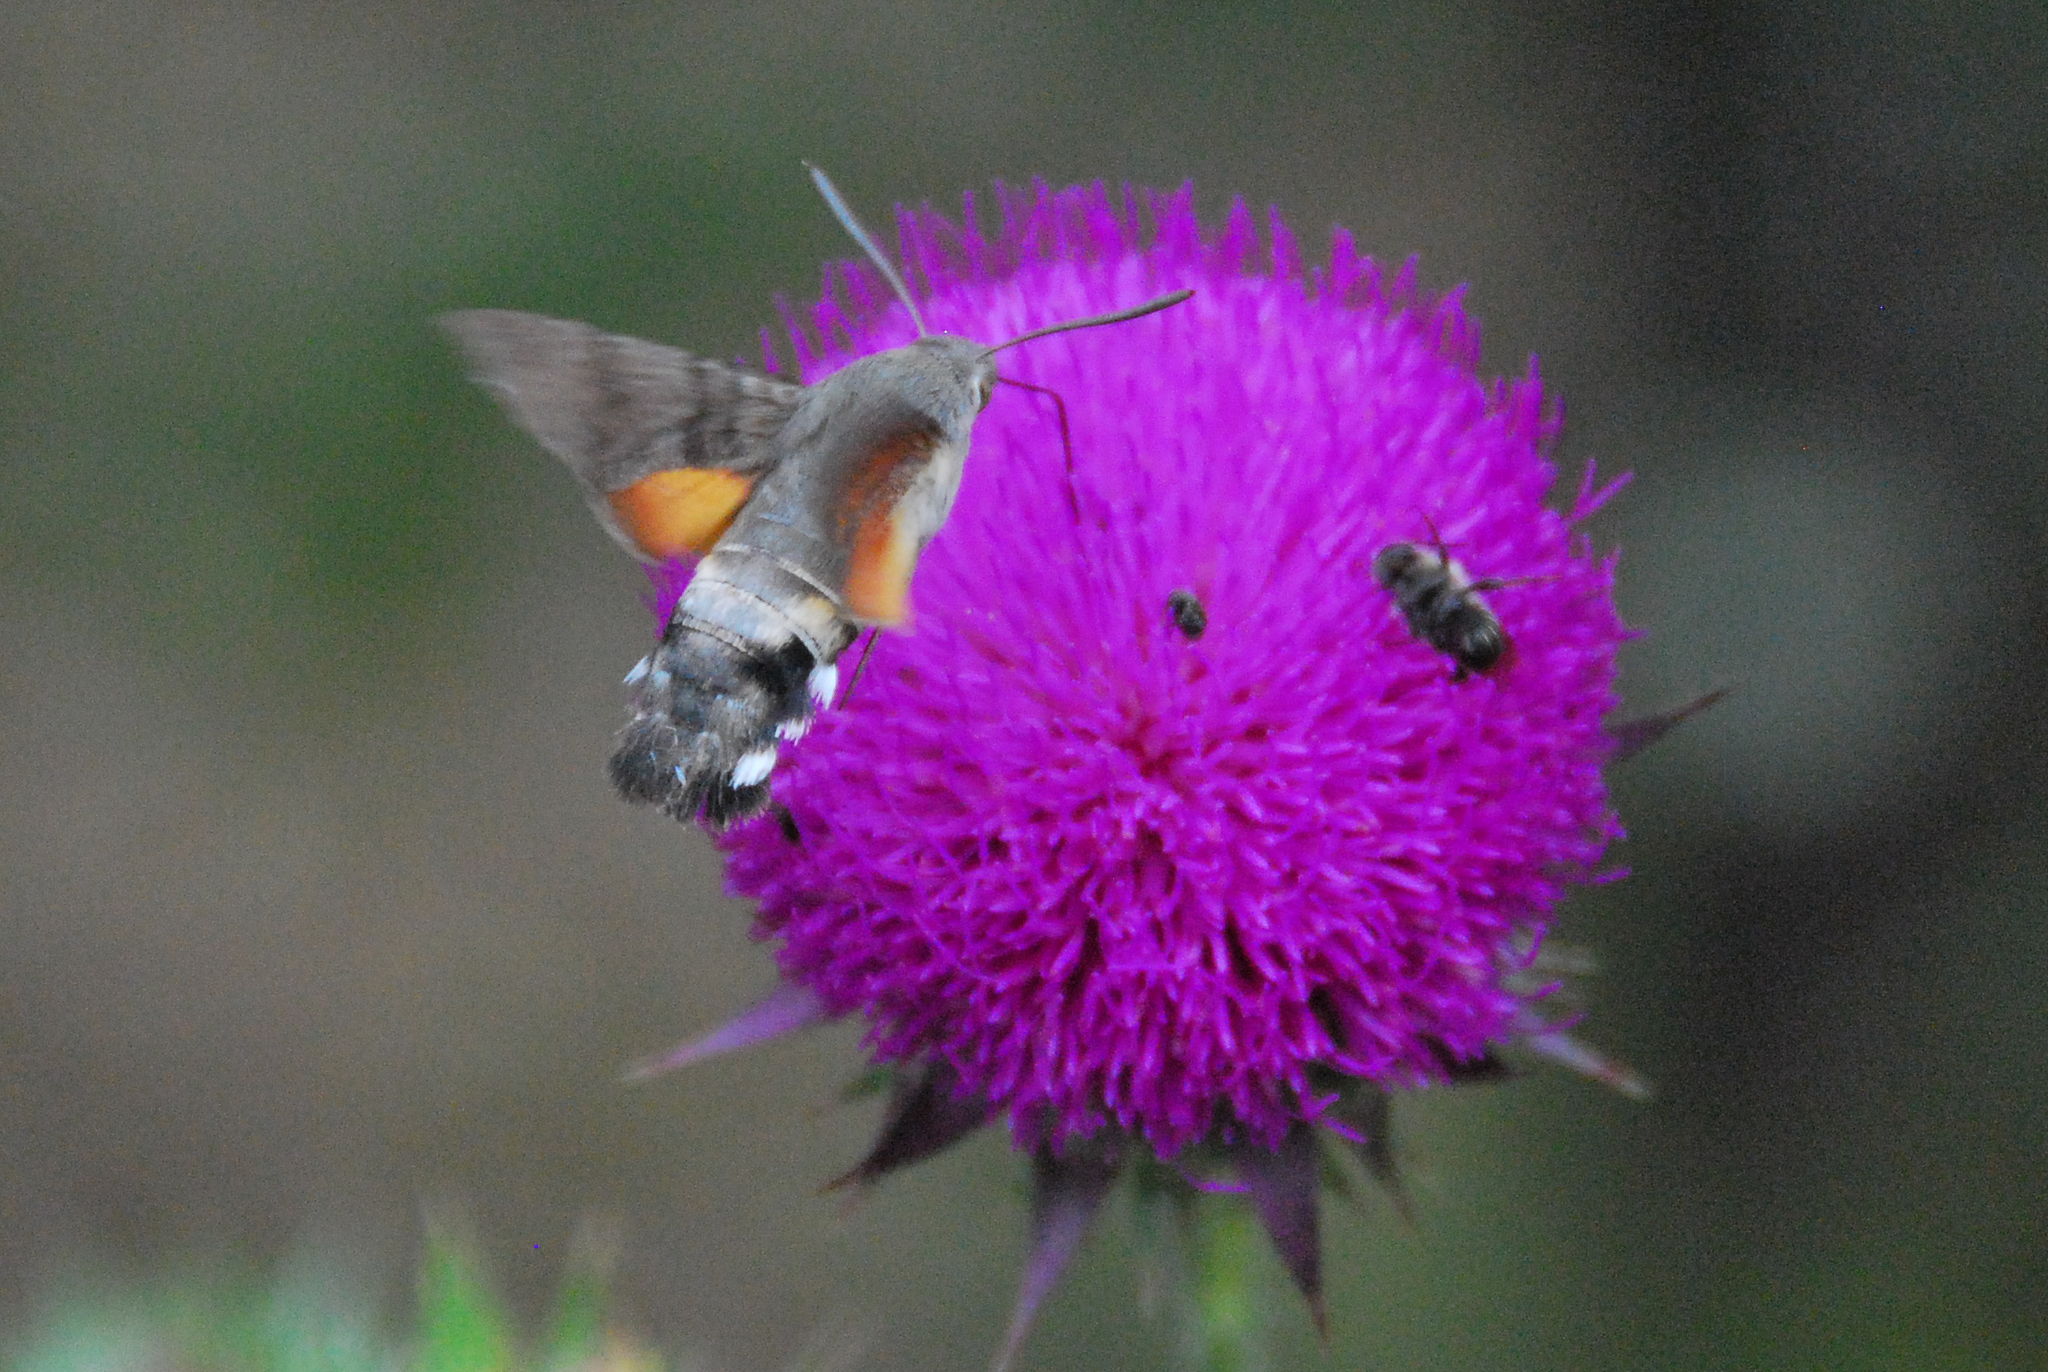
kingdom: Animalia
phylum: Arthropoda
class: Insecta
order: Lepidoptera
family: Sphingidae
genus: Macroglossum
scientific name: Macroglossum stellatarum
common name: Humming-bird hawk-moth
